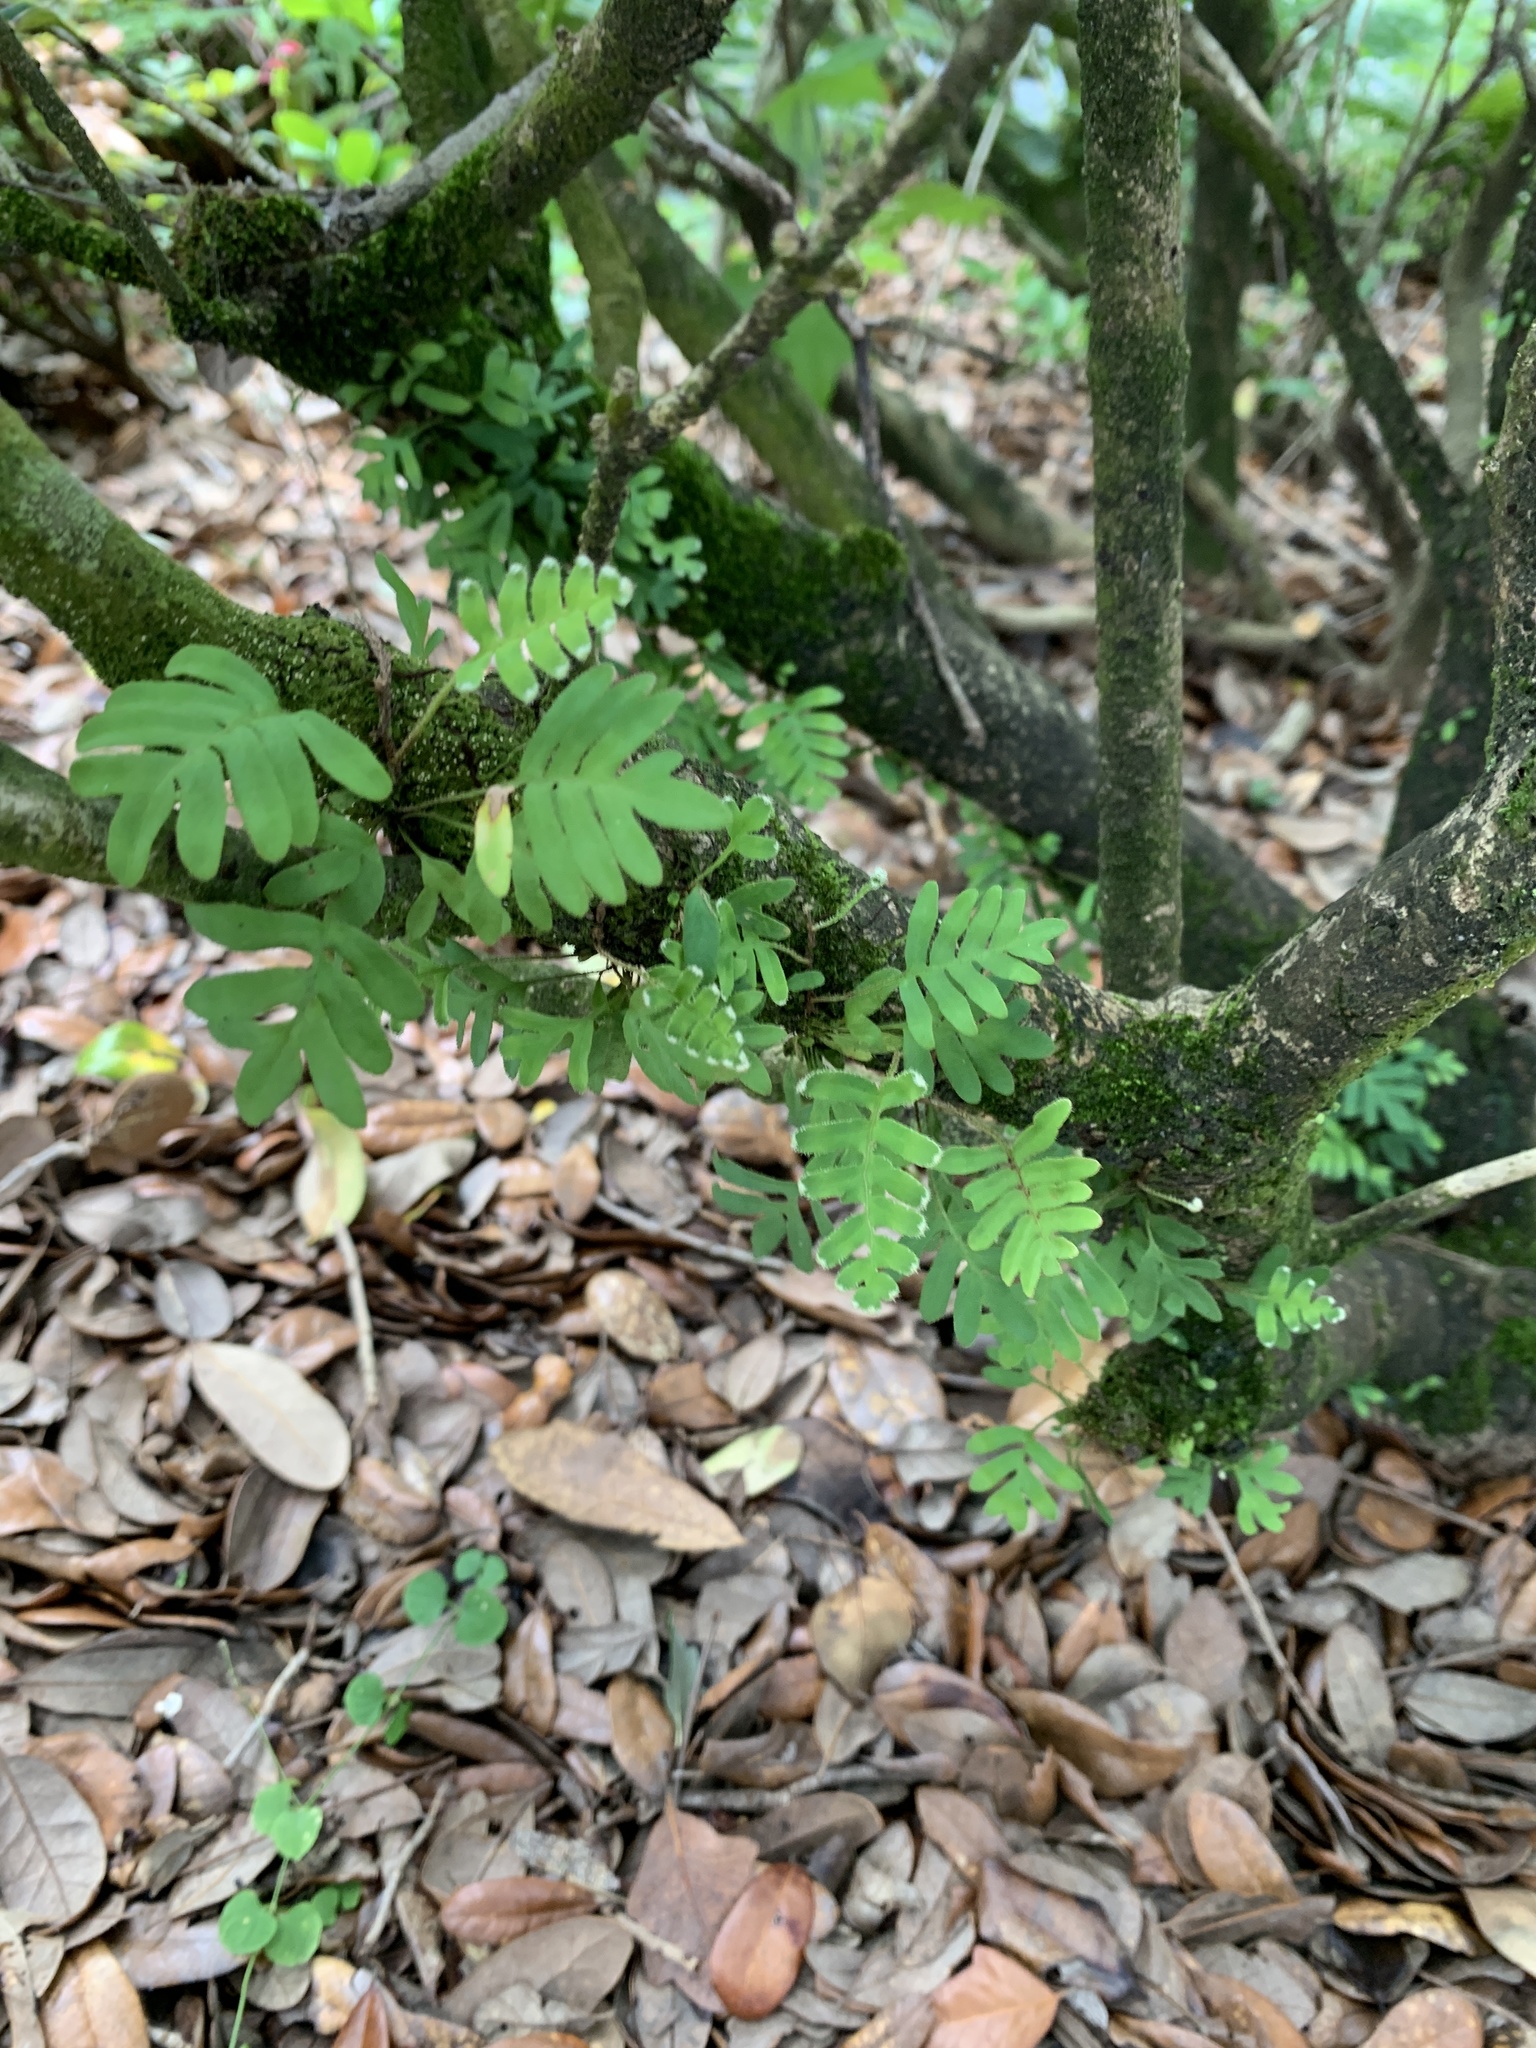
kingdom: Plantae
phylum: Tracheophyta
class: Polypodiopsida
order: Polypodiales
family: Polypodiaceae
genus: Pleopeltis
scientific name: Pleopeltis michauxiana
